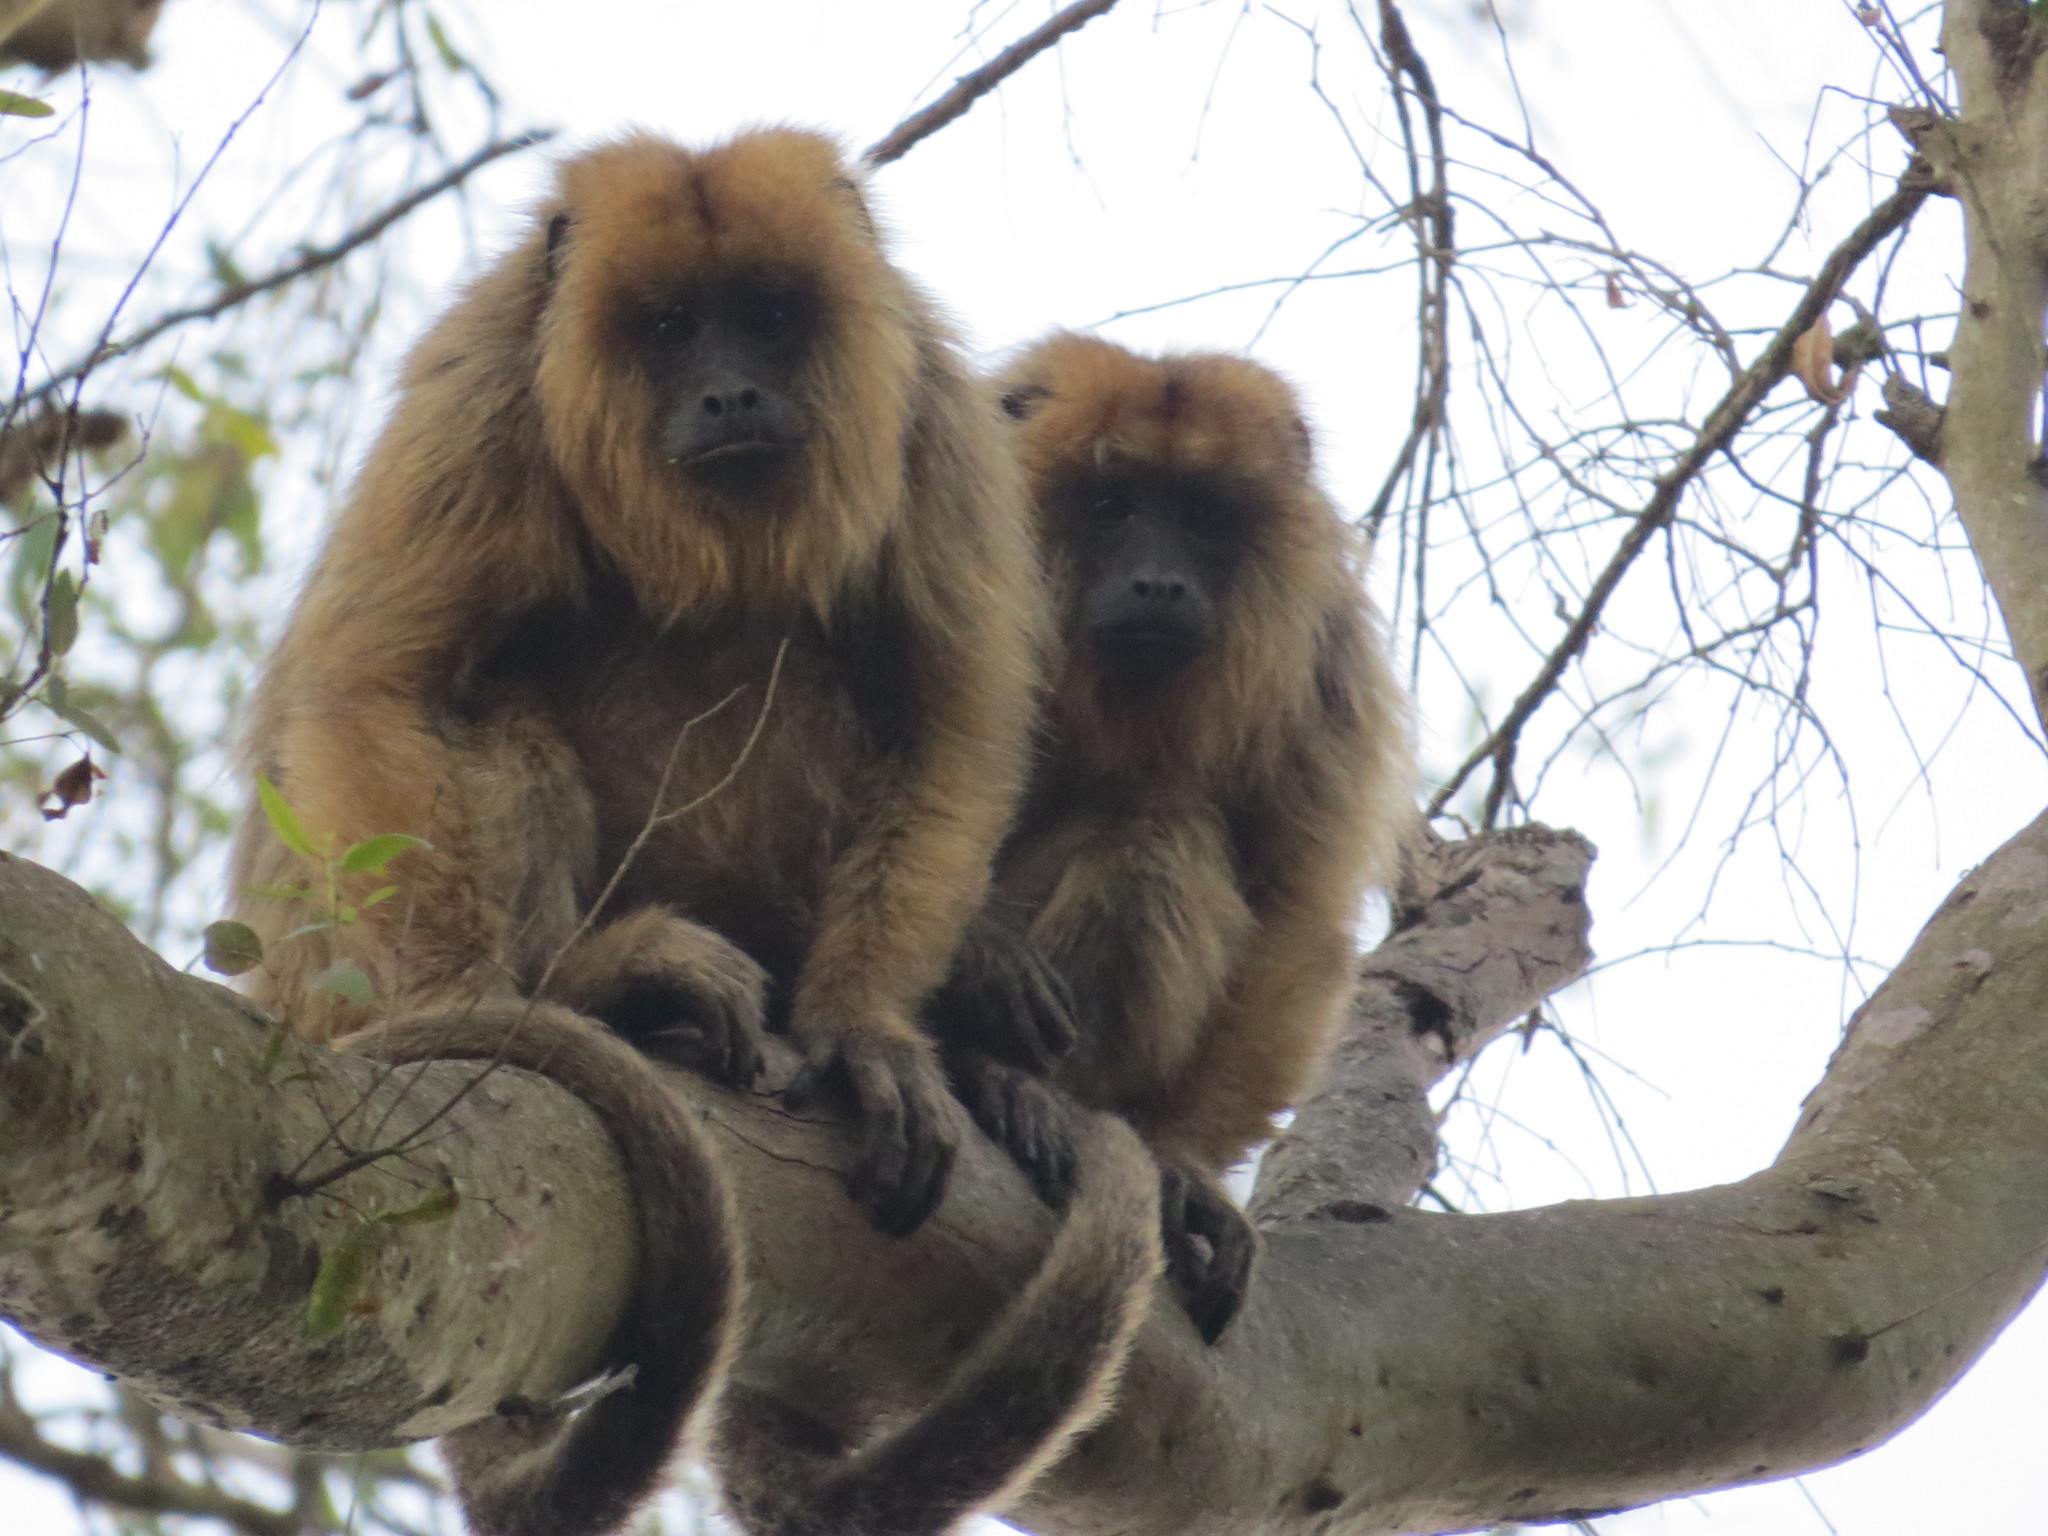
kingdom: Animalia
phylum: Chordata
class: Mammalia
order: Primates
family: Atelidae
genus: Alouatta
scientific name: Alouatta caraya
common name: Black howler
